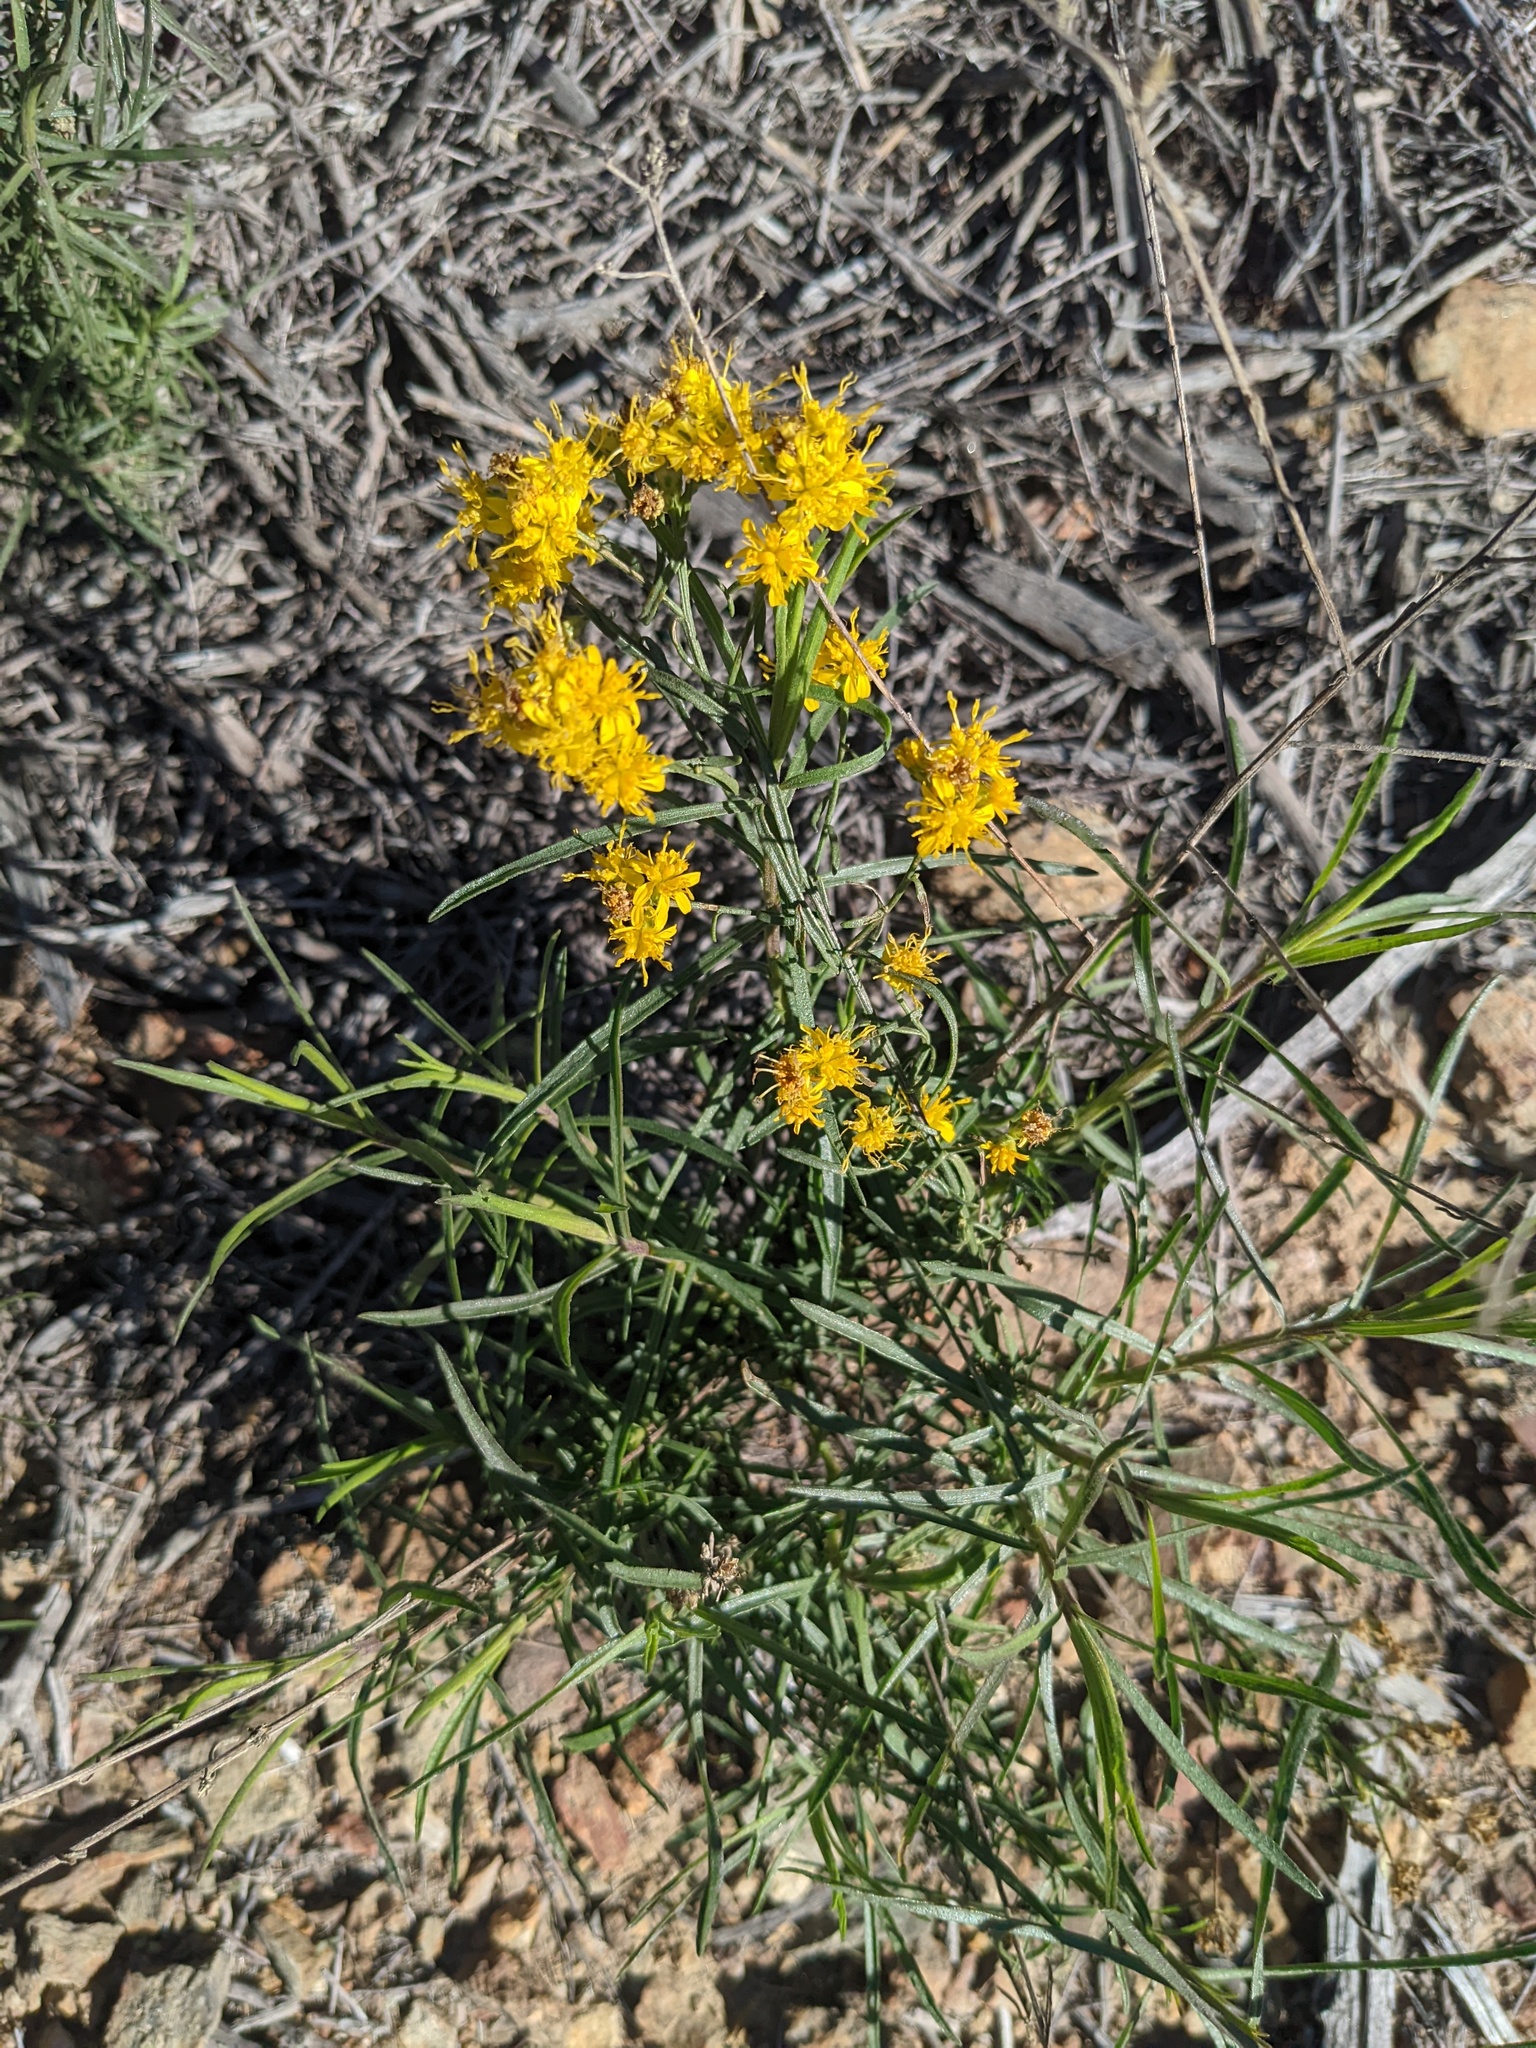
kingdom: Plantae
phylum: Tracheophyta
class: Magnoliopsida
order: Asterales
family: Asteraceae
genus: Gutierrezia
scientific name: Gutierrezia sarothrae
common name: Broom snakeweed
